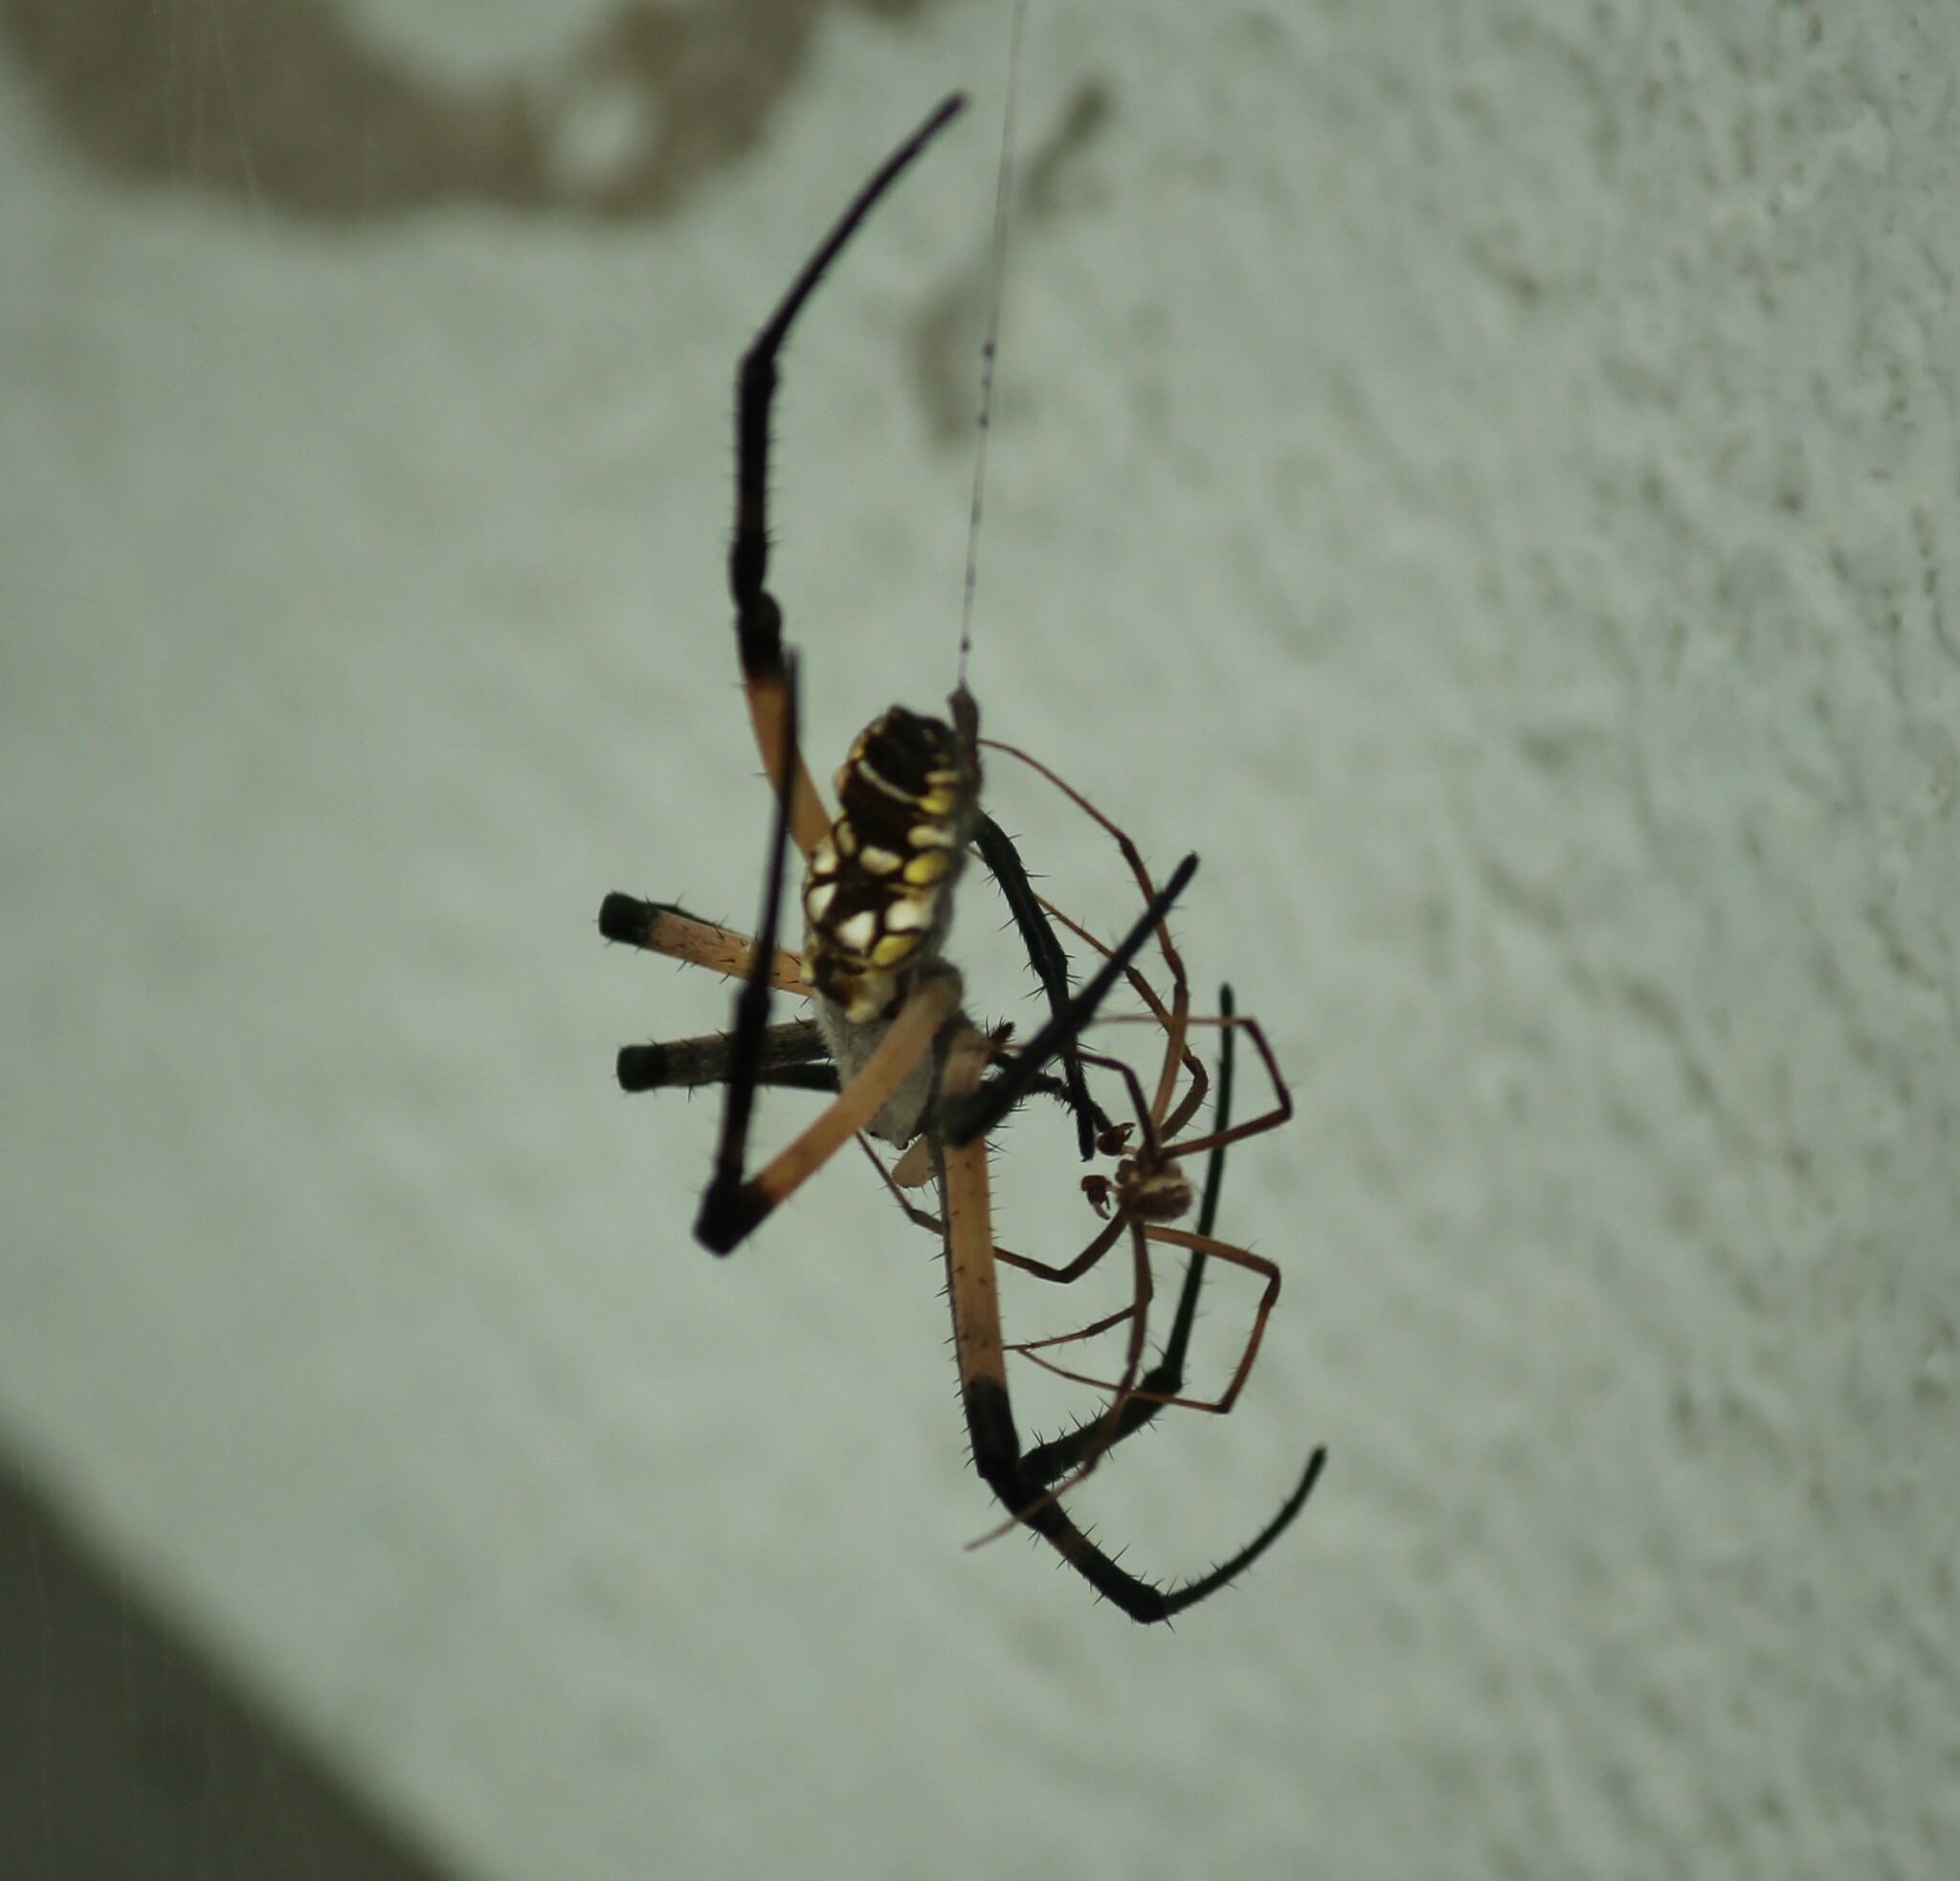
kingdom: Animalia
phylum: Arthropoda
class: Arachnida
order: Araneae
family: Araneidae
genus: Argiope
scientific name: Argiope aurantia
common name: Orb weavers
